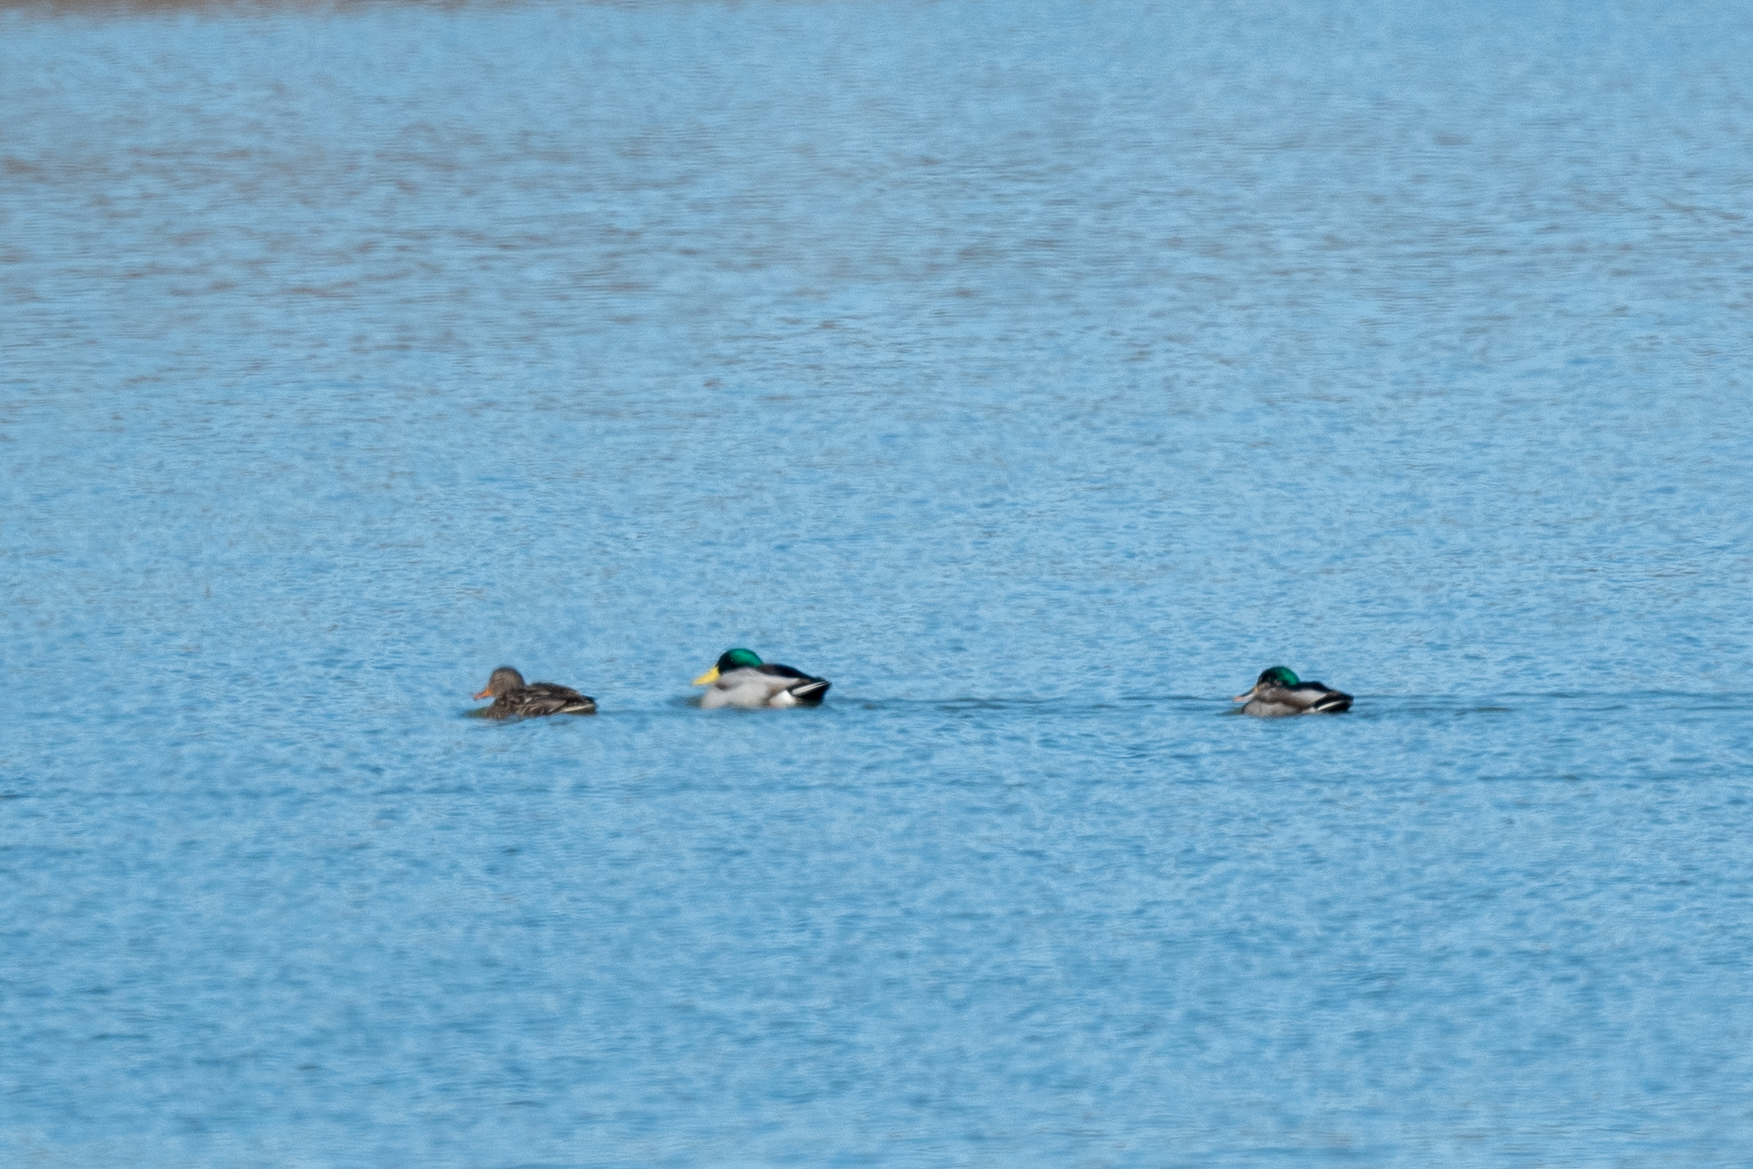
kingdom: Animalia
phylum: Chordata
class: Aves
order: Anseriformes
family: Anatidae
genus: Anas
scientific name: Anas platyrhynchos
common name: Mallard
